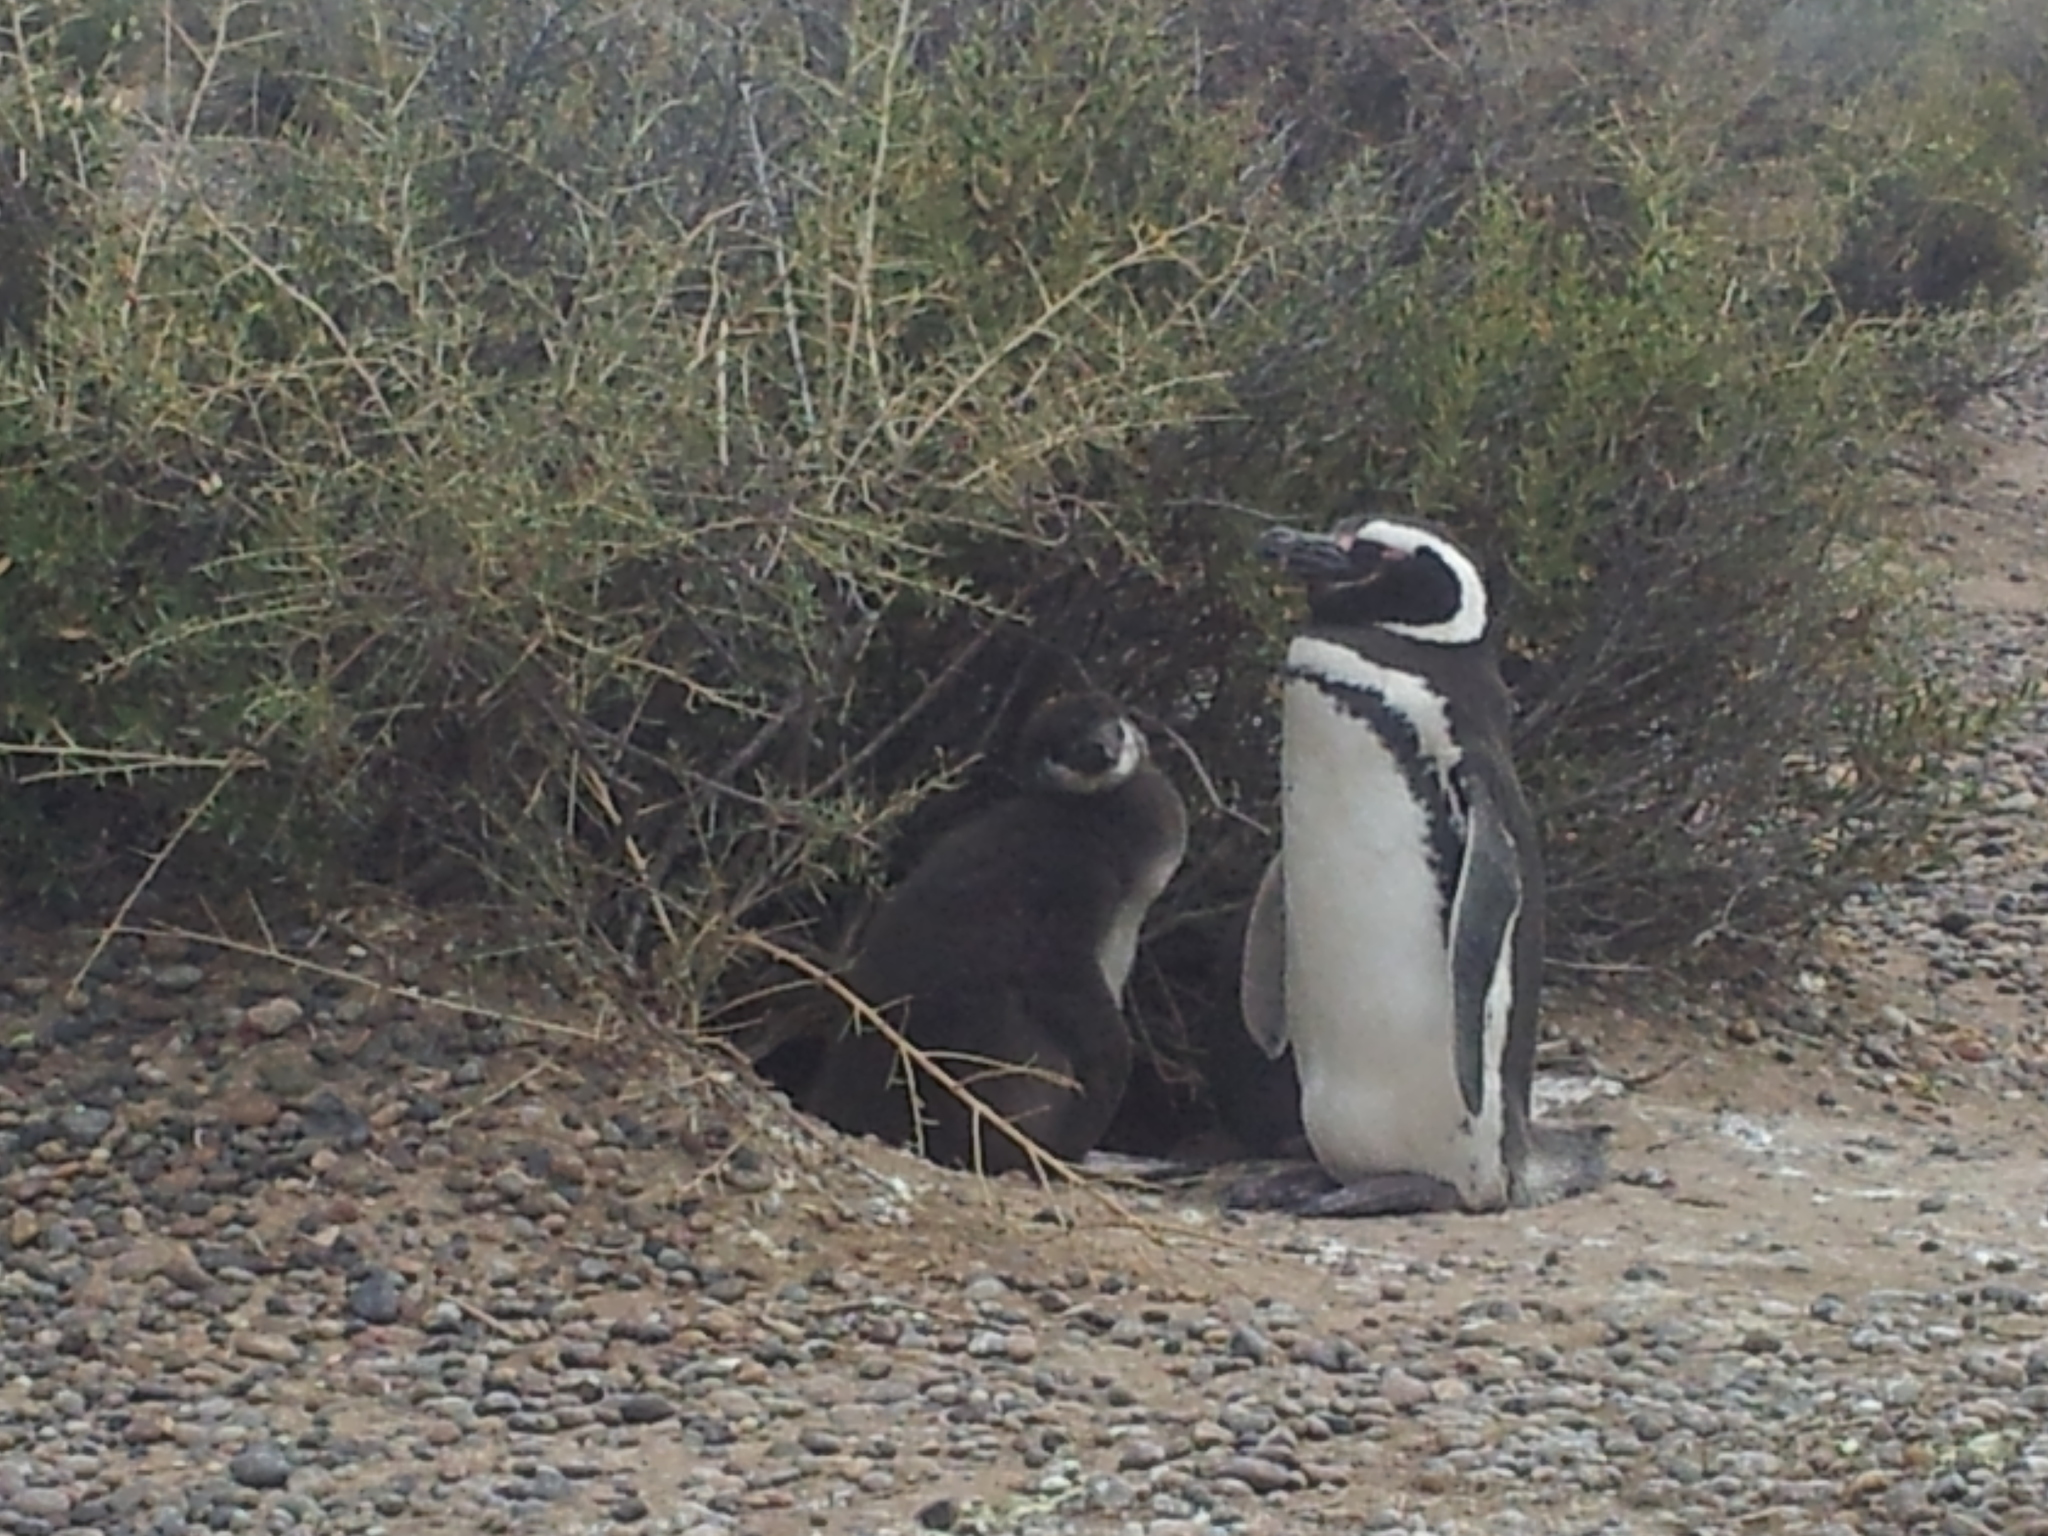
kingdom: Animalia
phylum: Chordata
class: Aves
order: Sphenisciformes
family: Spheniscidae
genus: Spheniscus
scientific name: Spheniscus magellanicus
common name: Magellanic penguin
